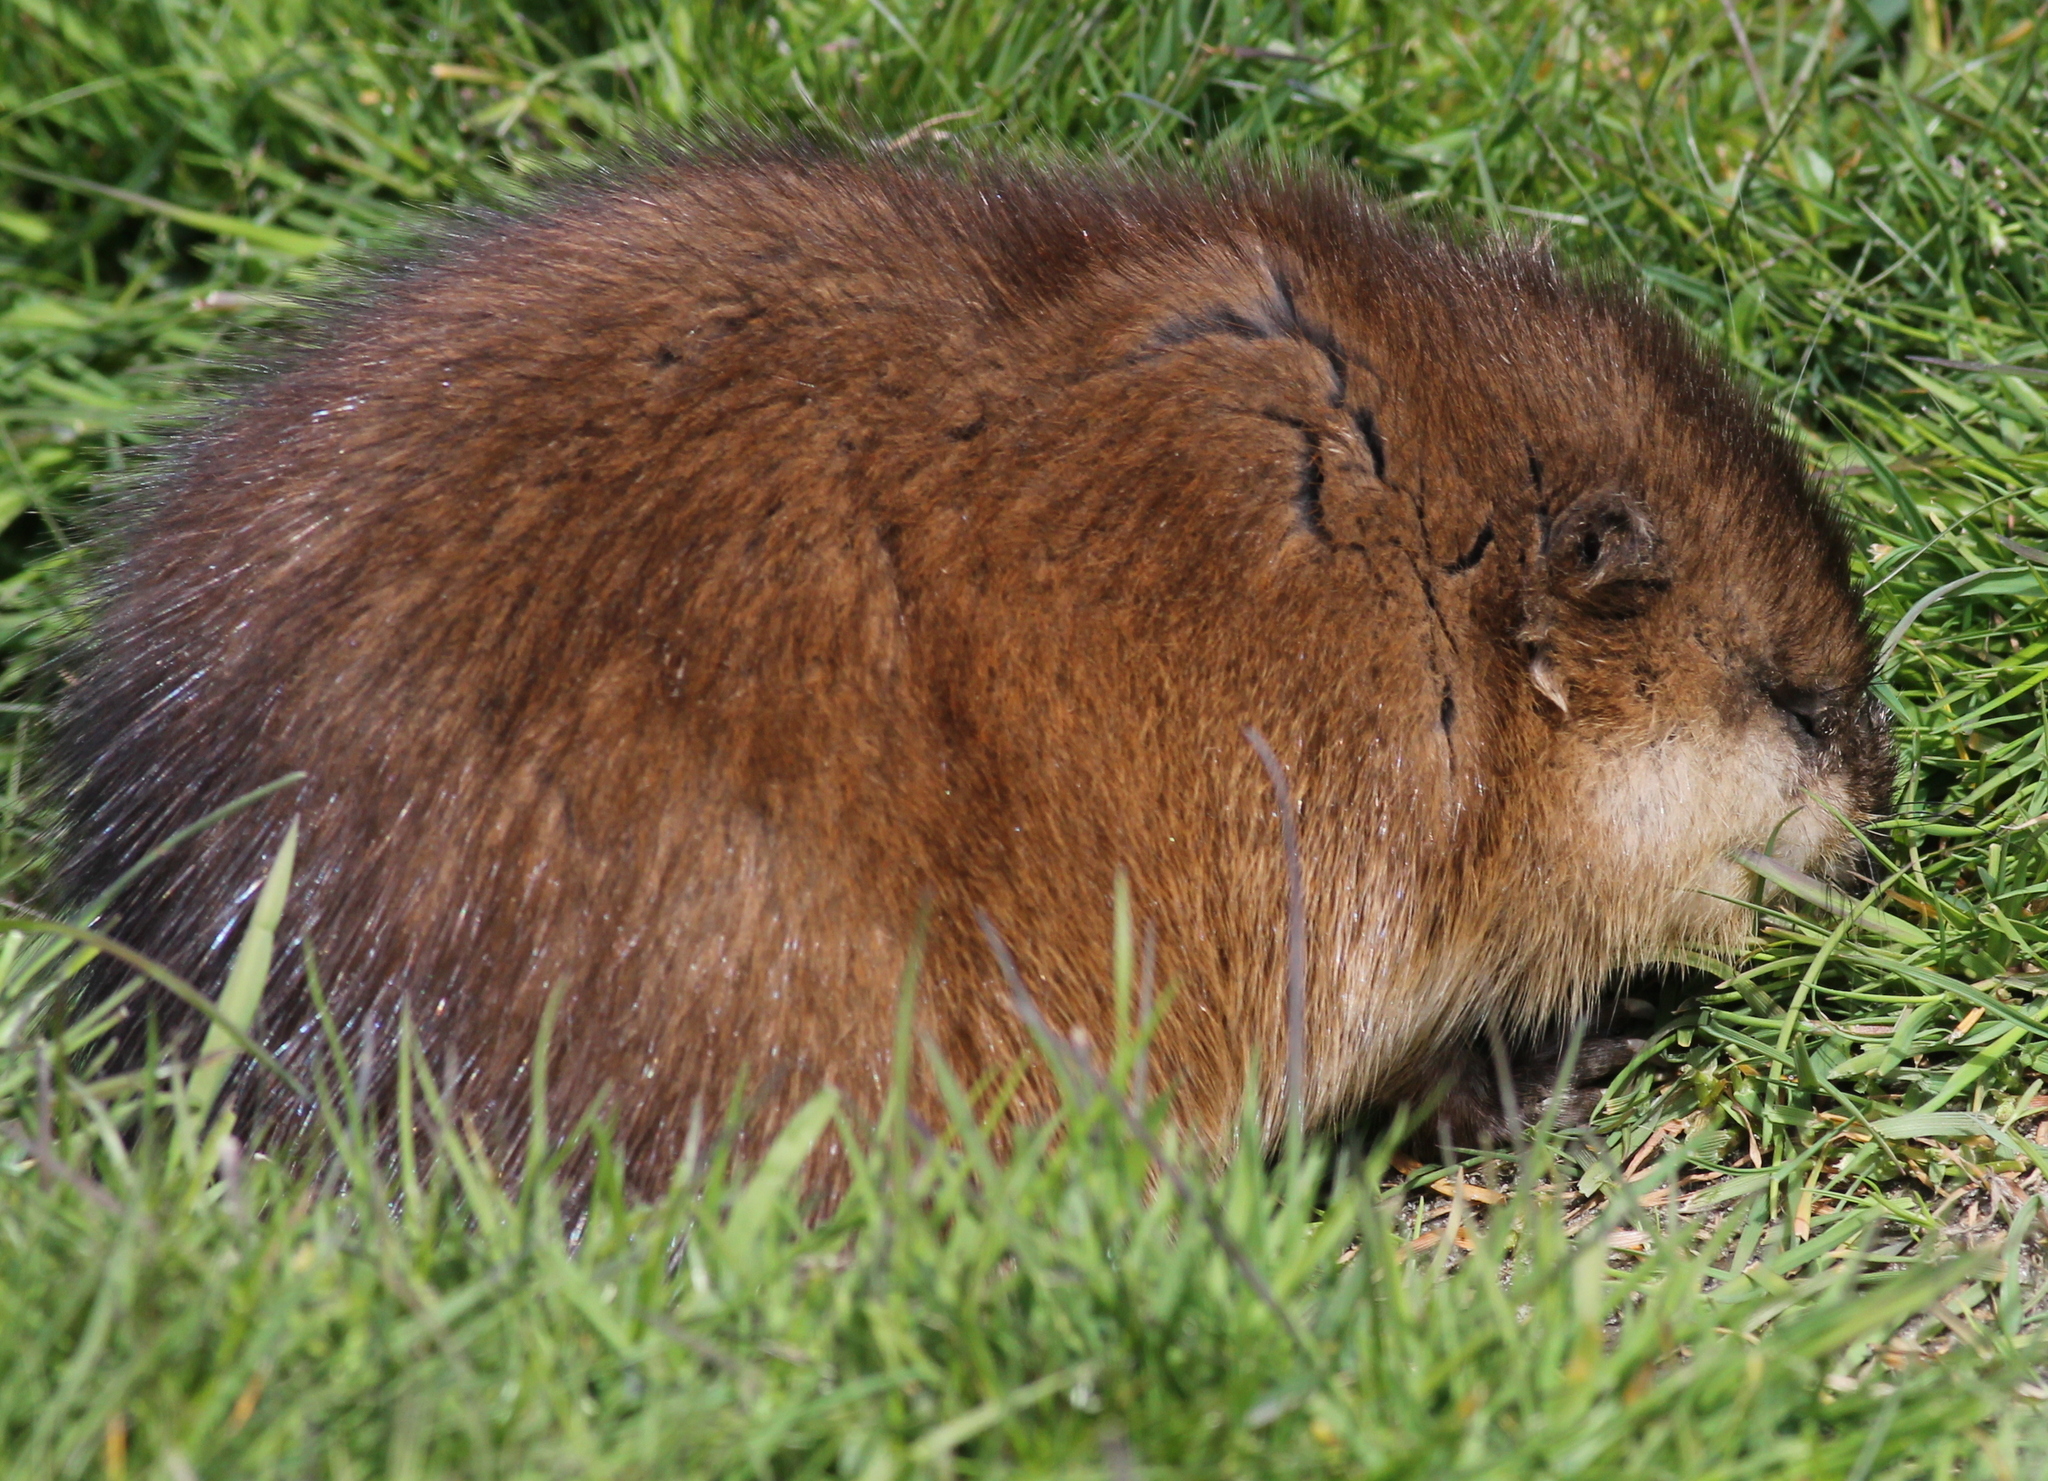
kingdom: Animalia
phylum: Chordata
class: Mammalia
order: Rodentia
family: Cricetidae
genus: Ondatra
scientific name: Ondatra zibethicus
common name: Muskrat
